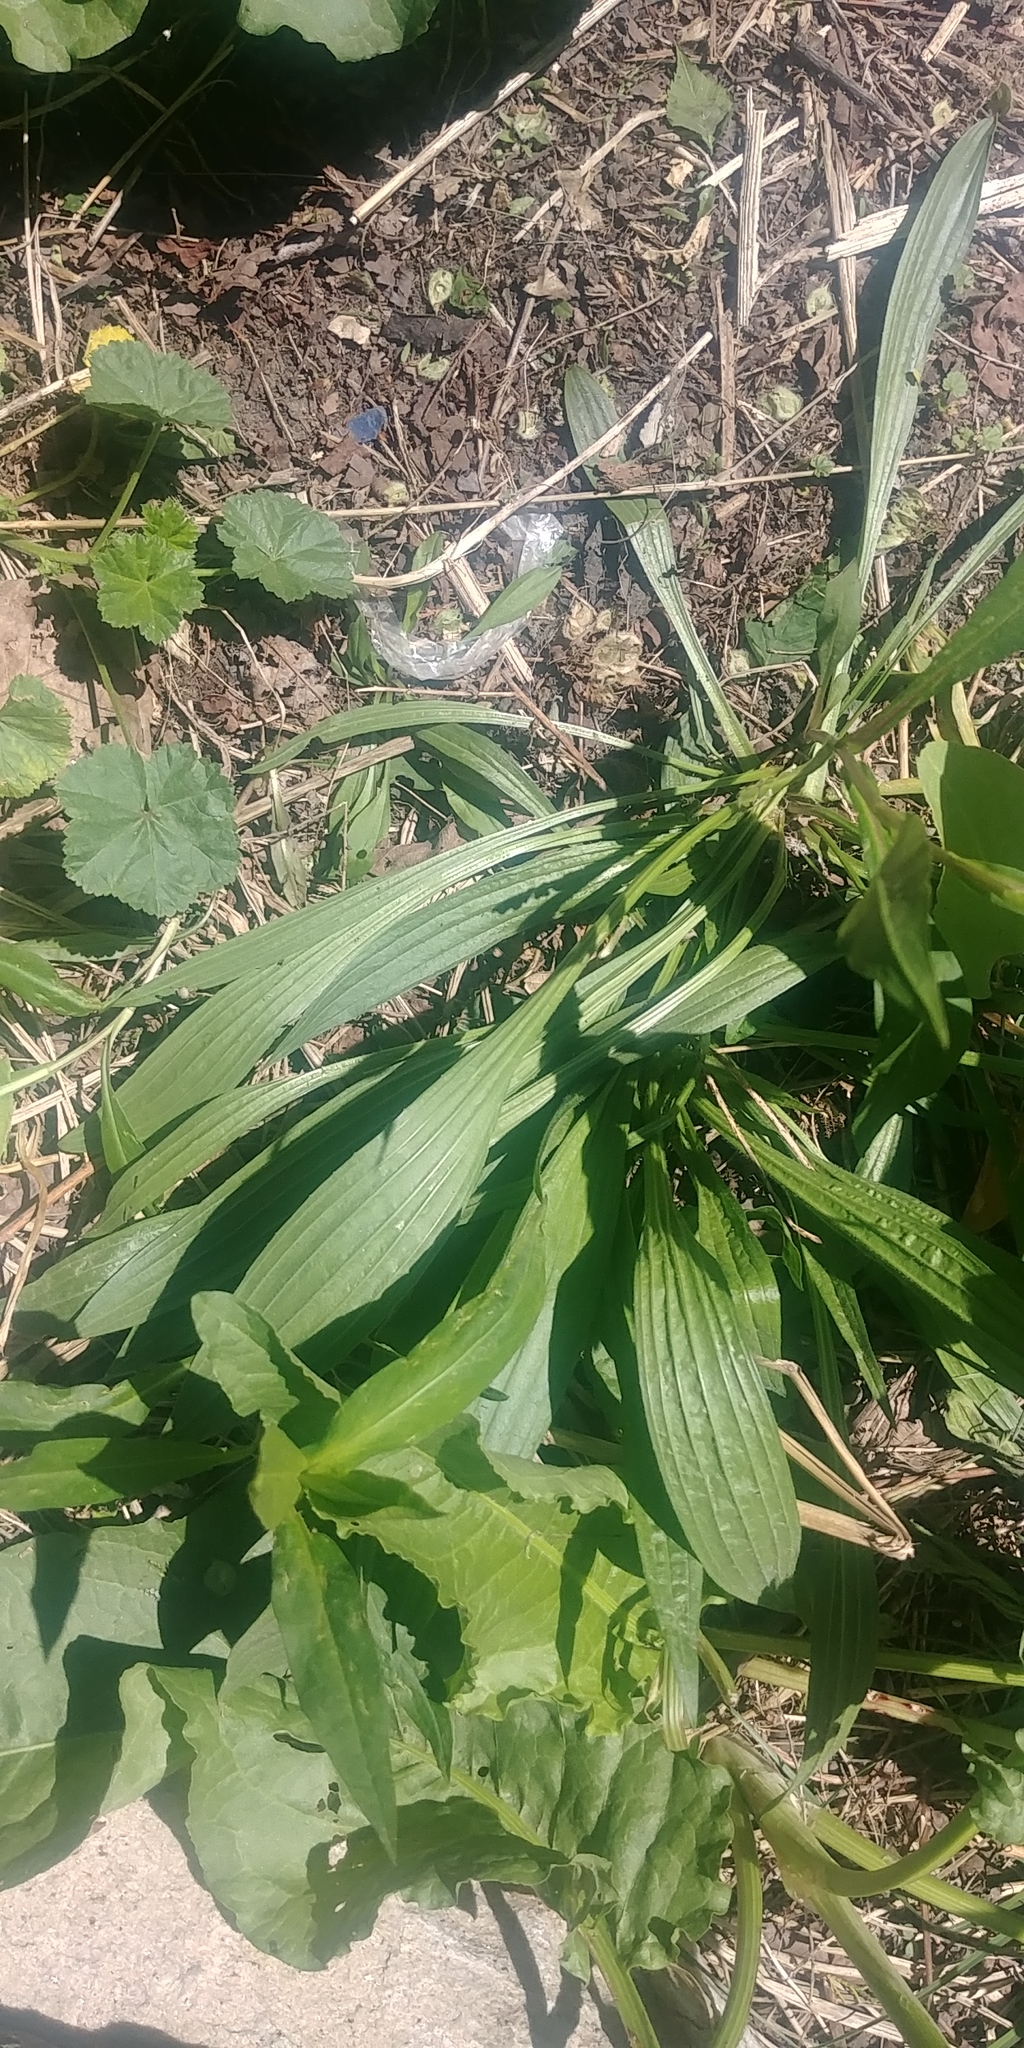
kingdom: Plantae
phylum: Tracheophyta
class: Magnoliopsida
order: Lamiales
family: Plantaginaceae
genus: Plantago
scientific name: Plantago lanceolata
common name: Ribwort plantain
